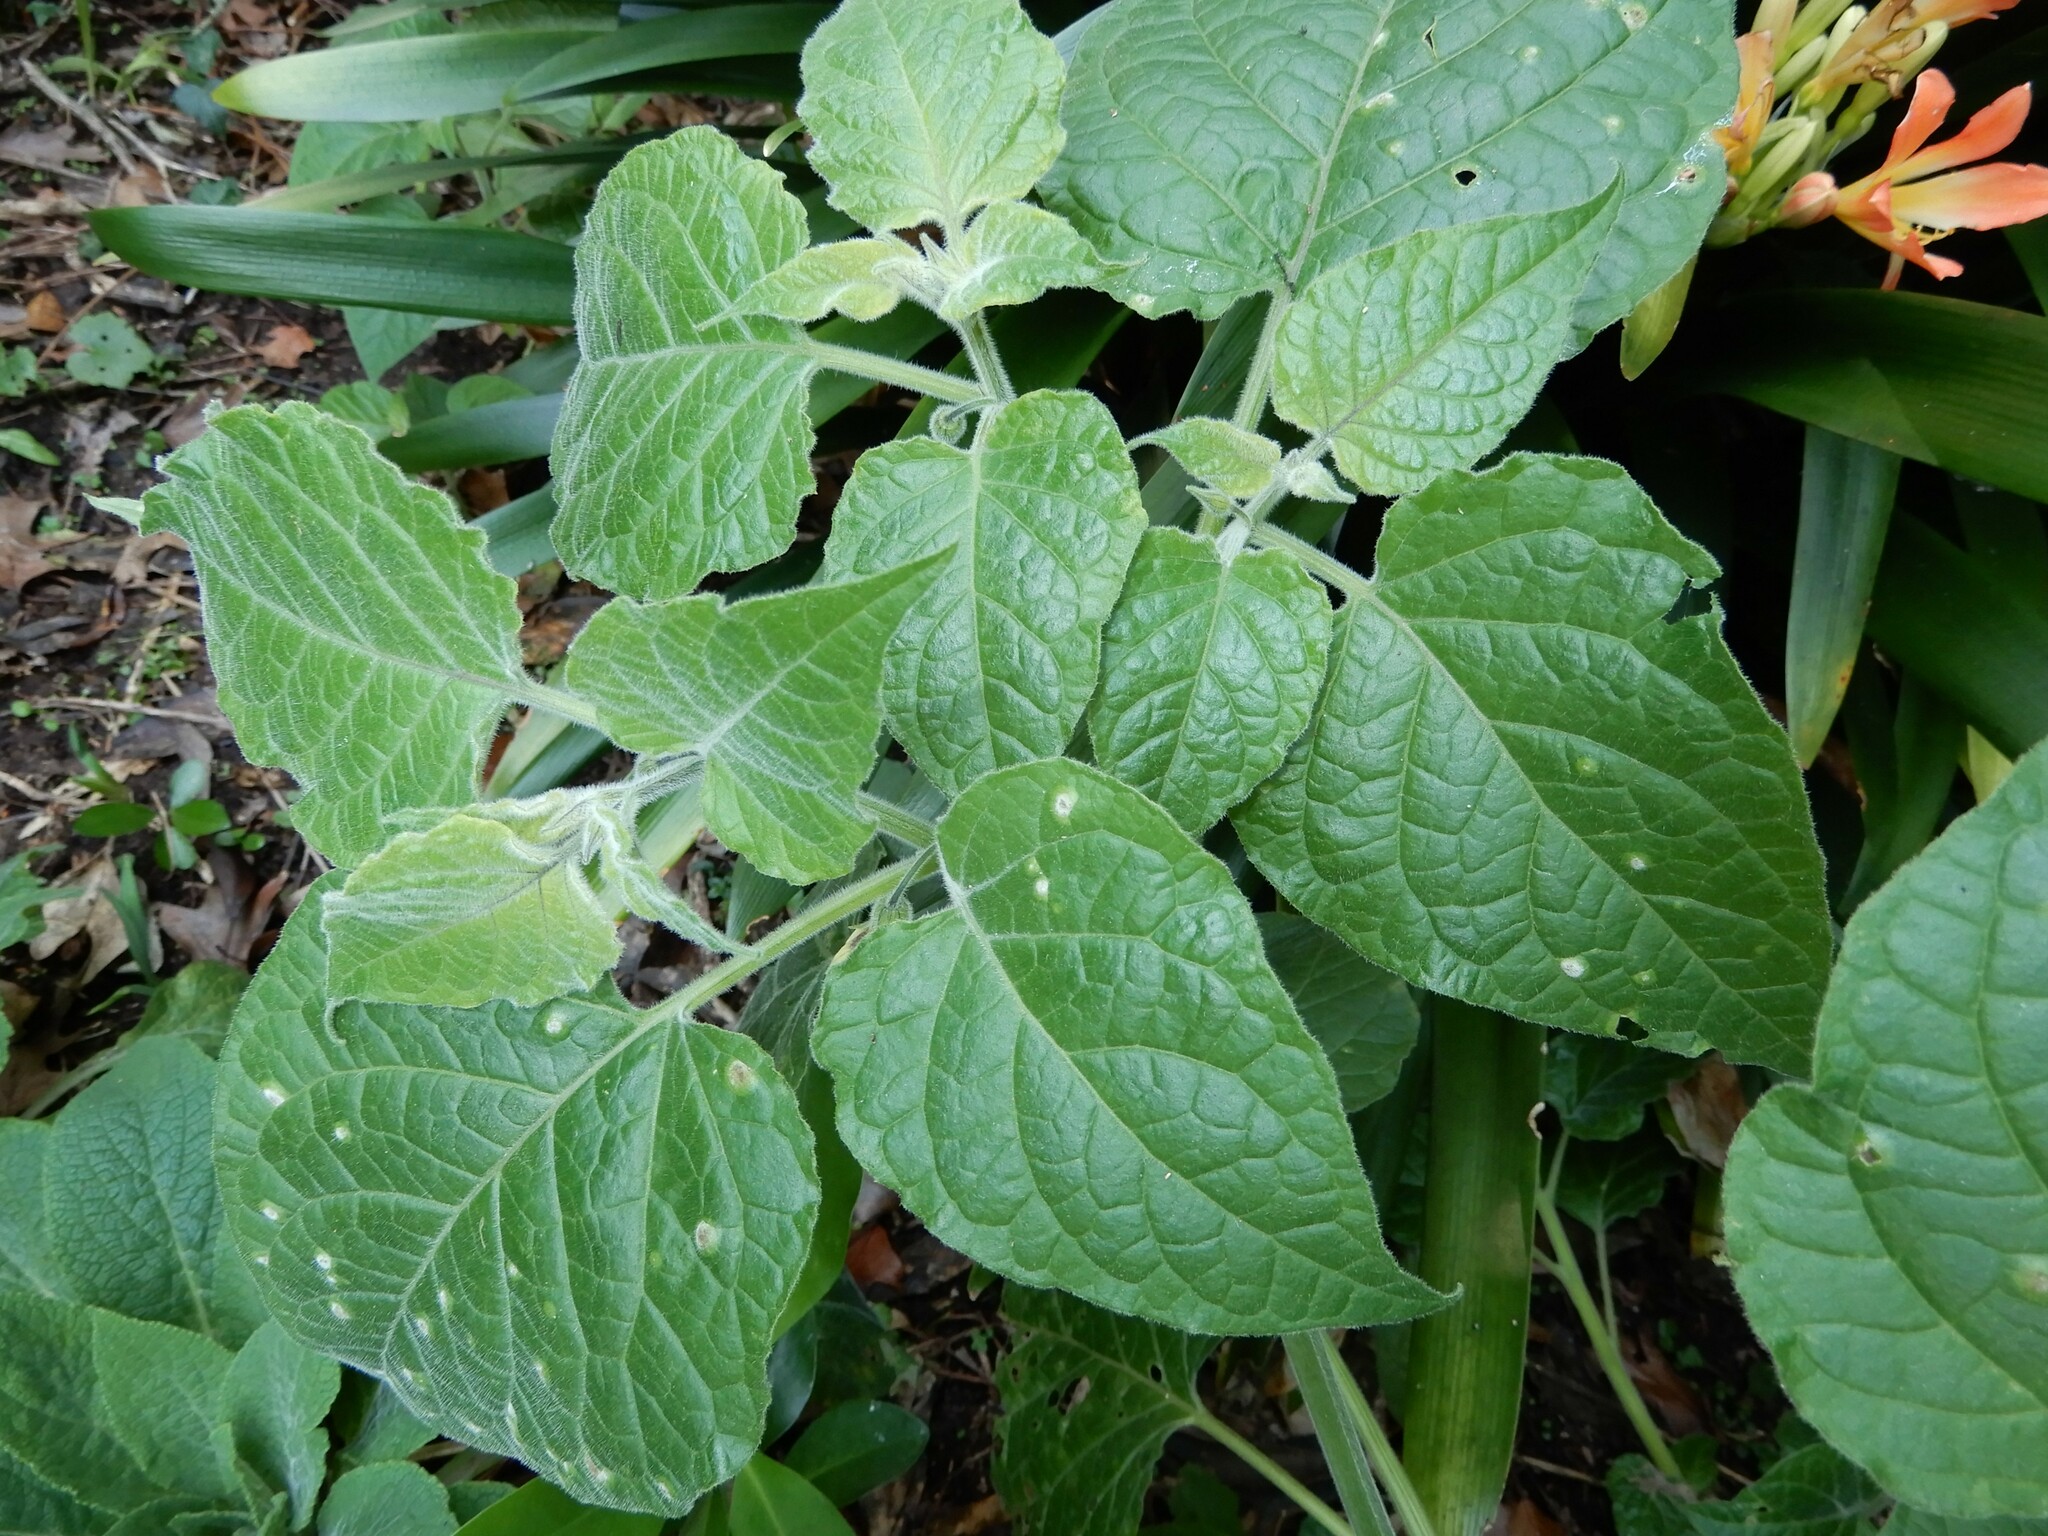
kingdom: Plantae
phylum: Tracheophyta
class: Magnoliopsida
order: Solanales
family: Solanaceae
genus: Physalis
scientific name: Physalis peruviana
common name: Cape-gooseberry
